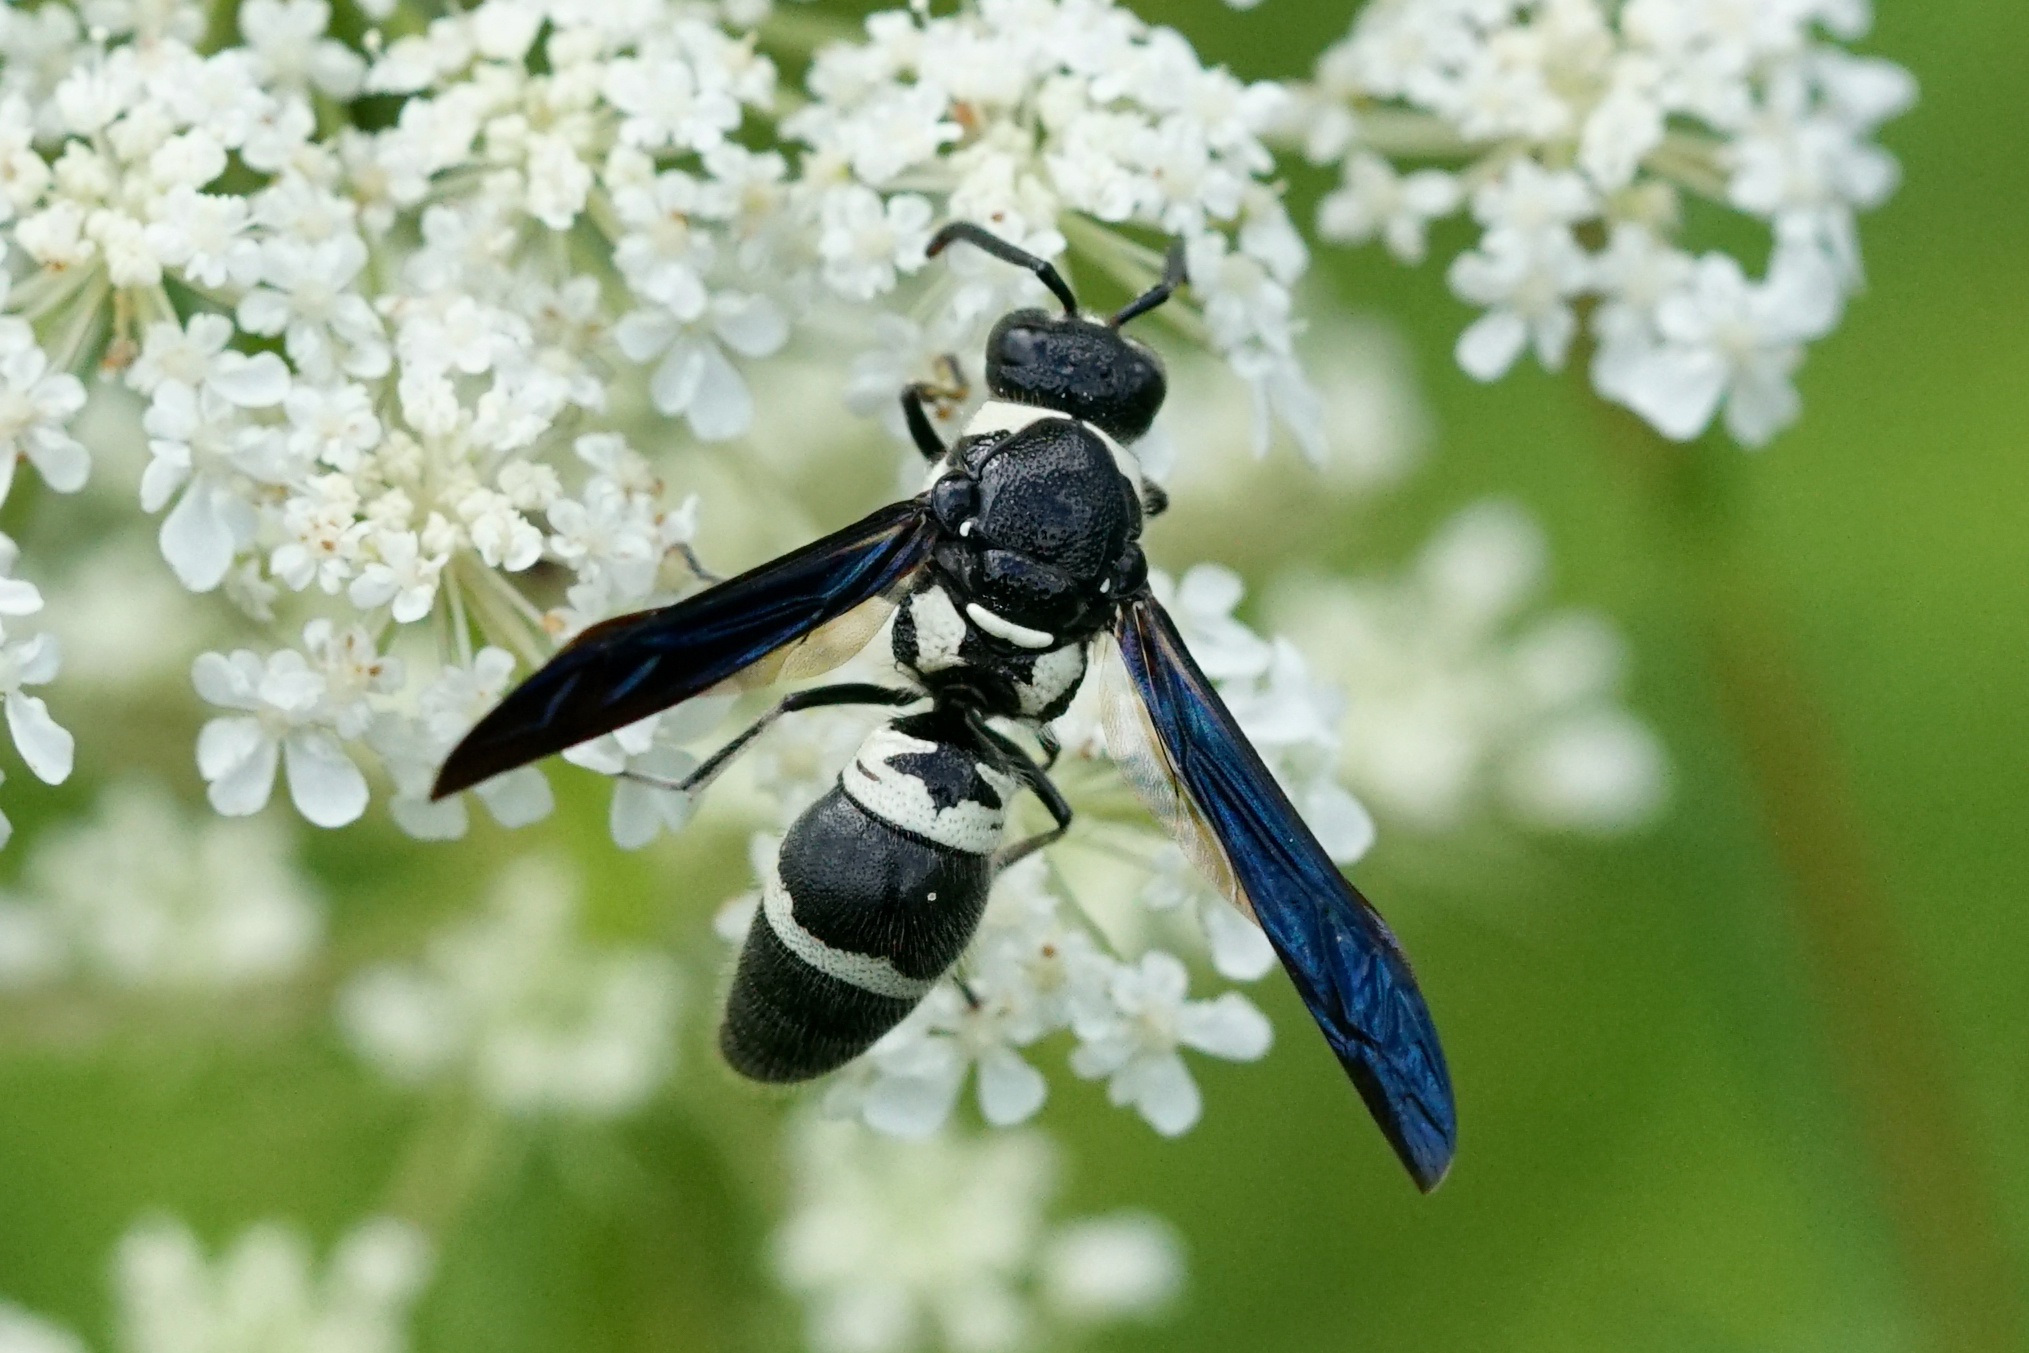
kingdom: Animalia
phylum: Arthropoda
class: Insecta
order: Hymenoptera
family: Eumenidae
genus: Pseudodynerus
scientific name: Pseudodynerus quadrisectus
